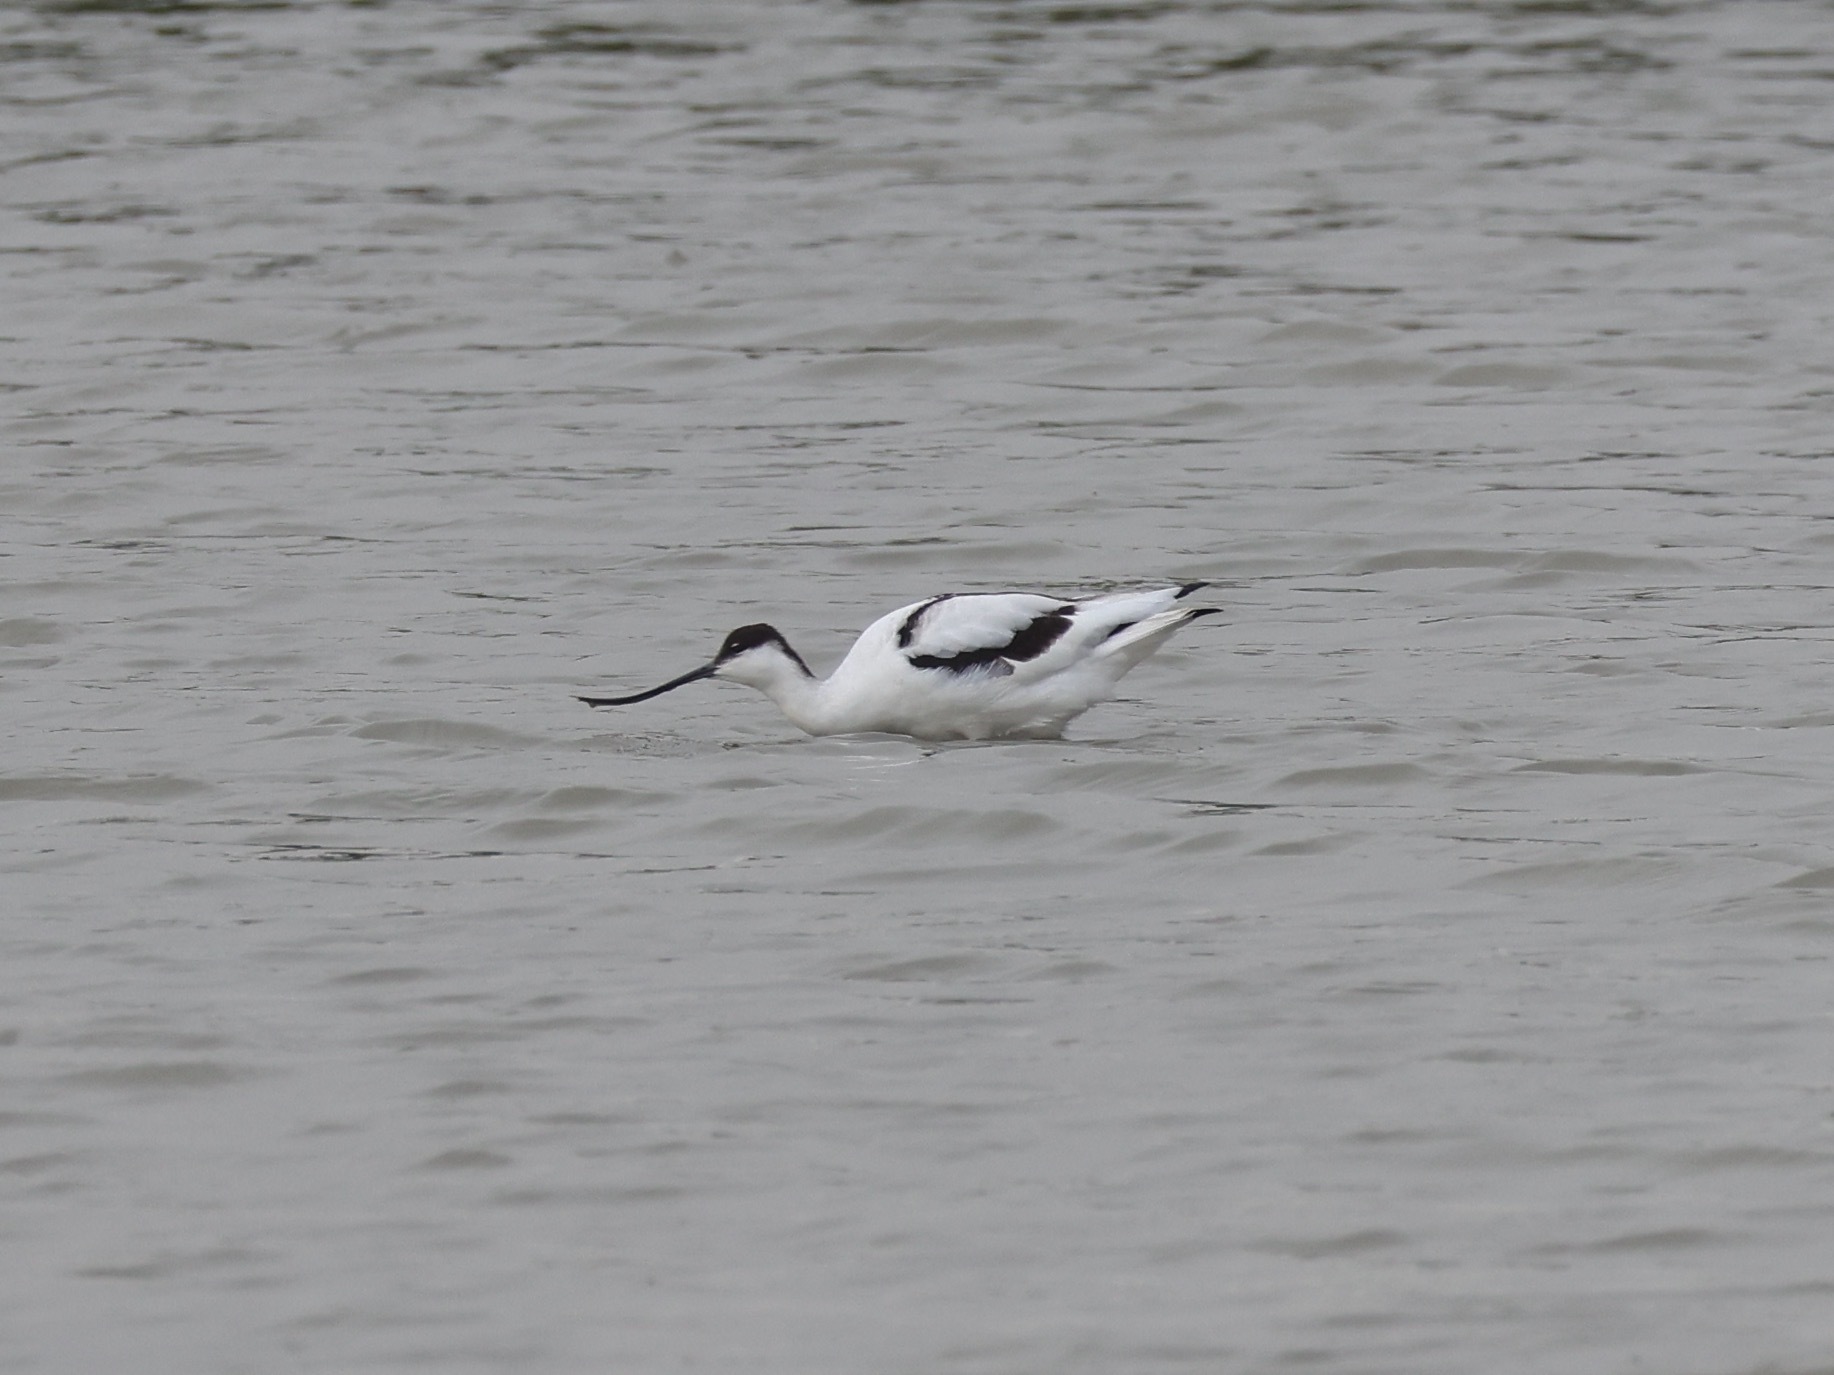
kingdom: Animalia
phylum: Chordata
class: Aves
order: Charadriiformes
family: Recurvirostridae
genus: Recurvirostra
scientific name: Recurvirostra avosetta
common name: Pied avocet
